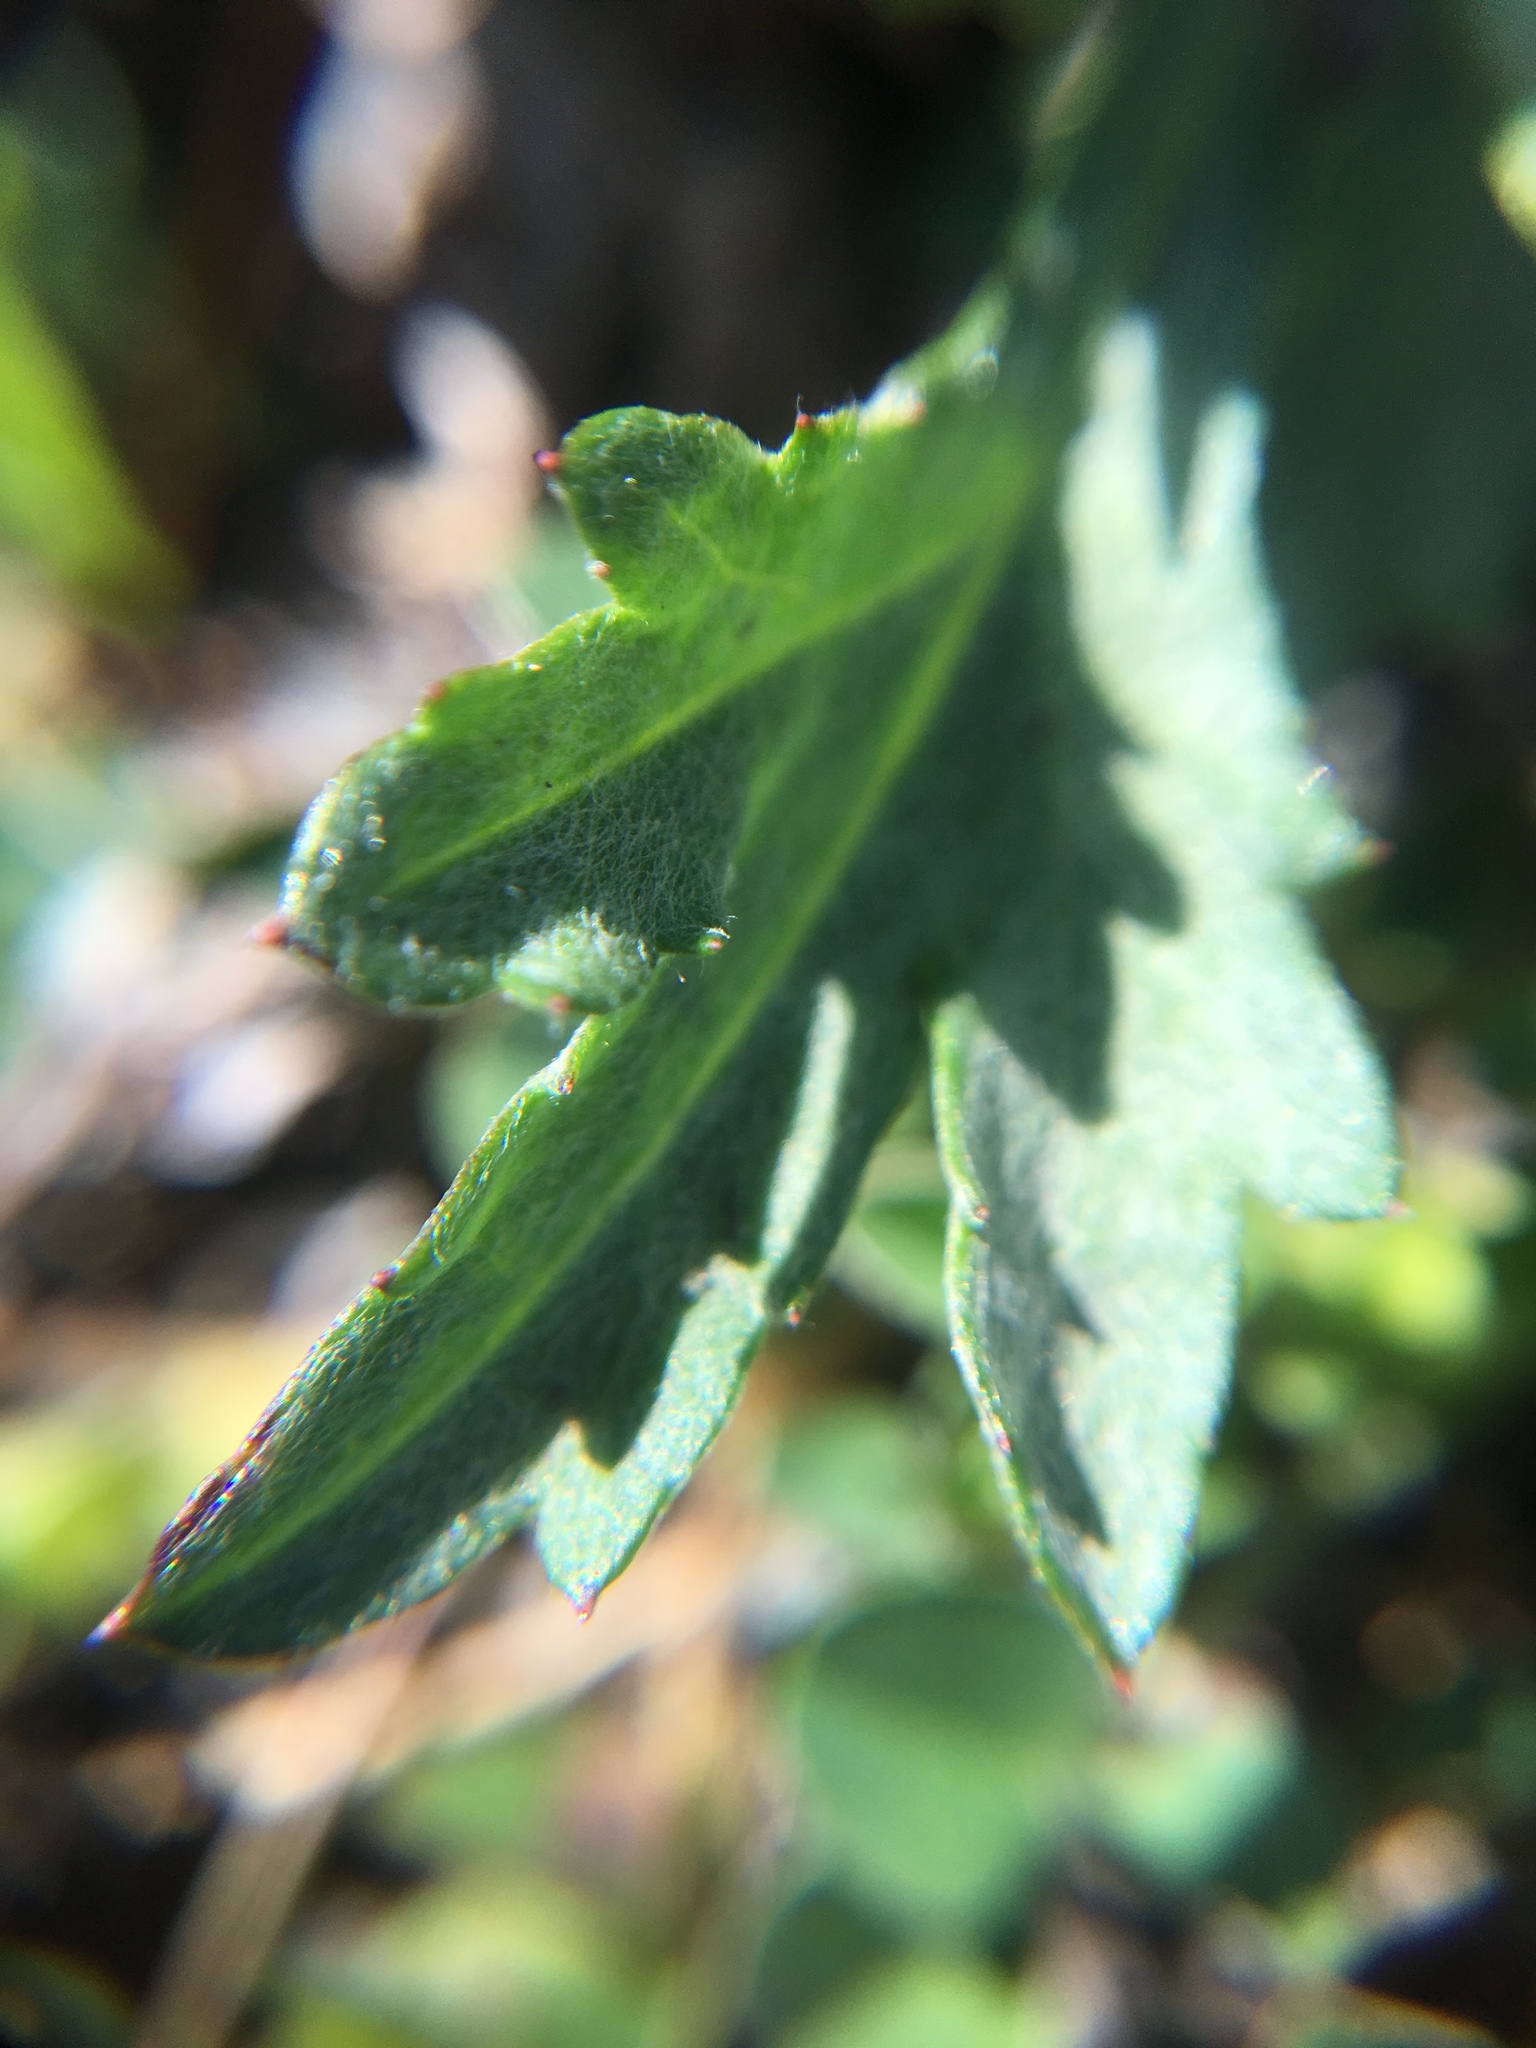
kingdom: Plantae
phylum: Tracheophyta
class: Magnoliopsida
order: Asterales
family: Asteraceae
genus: Artemisia
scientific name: Artemisia vulgaris
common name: Mugwort
